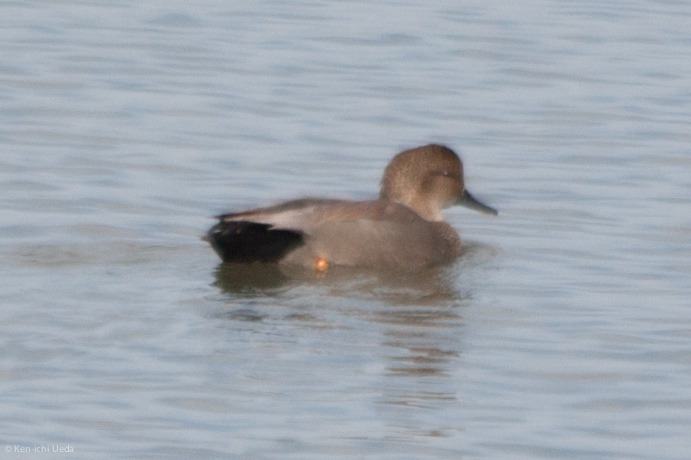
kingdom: Animalia
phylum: Chordata
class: Aves
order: Anseriformes
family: Anatidae
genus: Mareca
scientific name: Mareca strepera
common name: Gadwall
